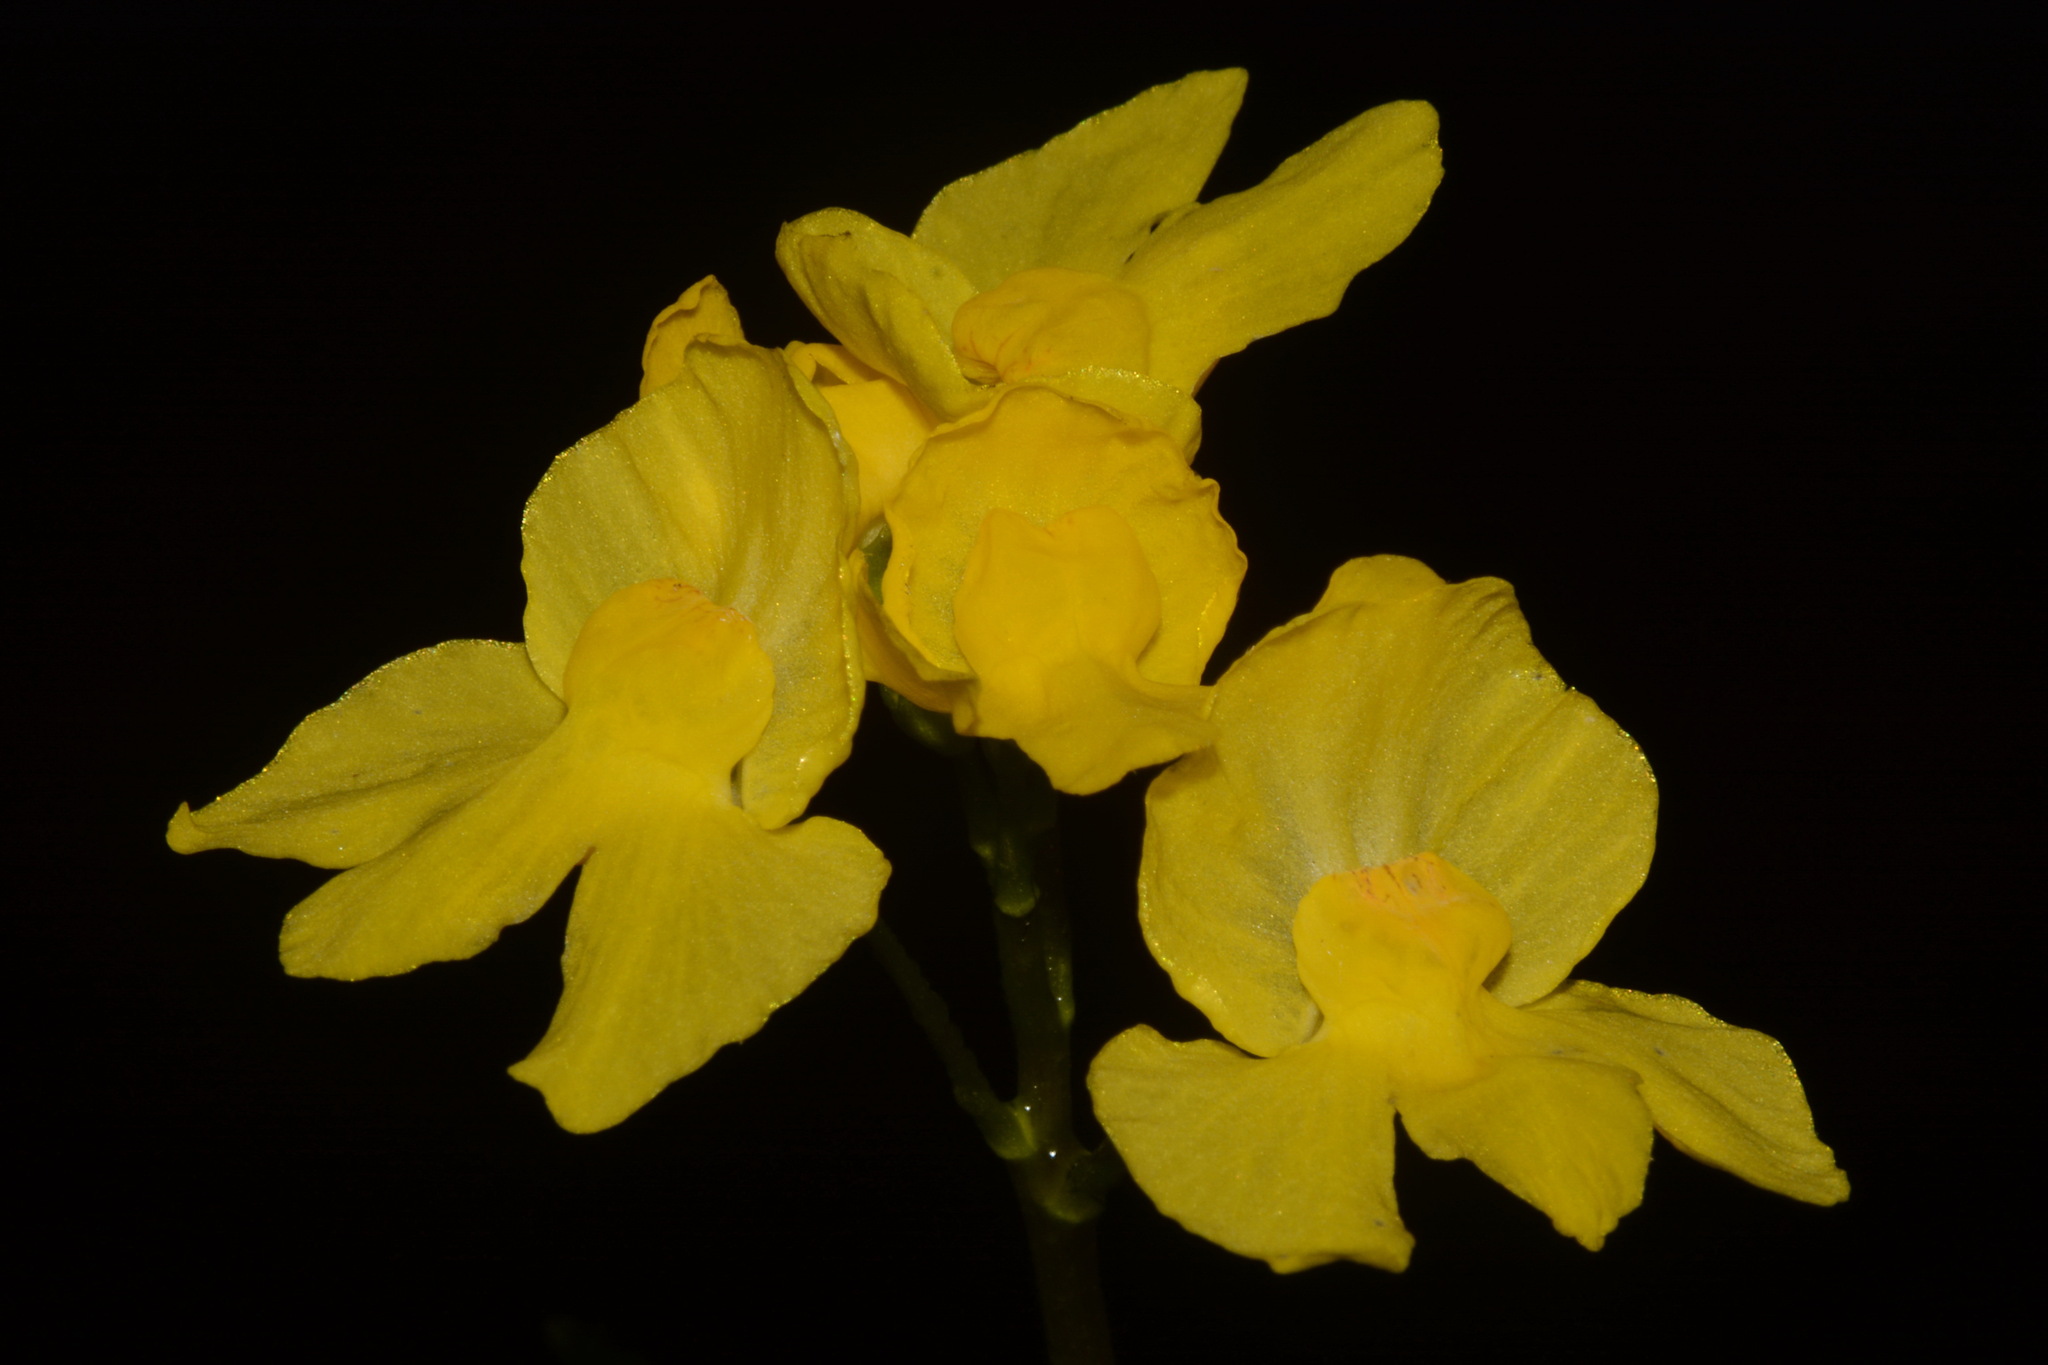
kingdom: Plantae
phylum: Tracheophyta
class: Magnoliopsida
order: Lamiales
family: Lentibulariaceae
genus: Utricularia
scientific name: Utricularia inflata
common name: Floating bladderwort
